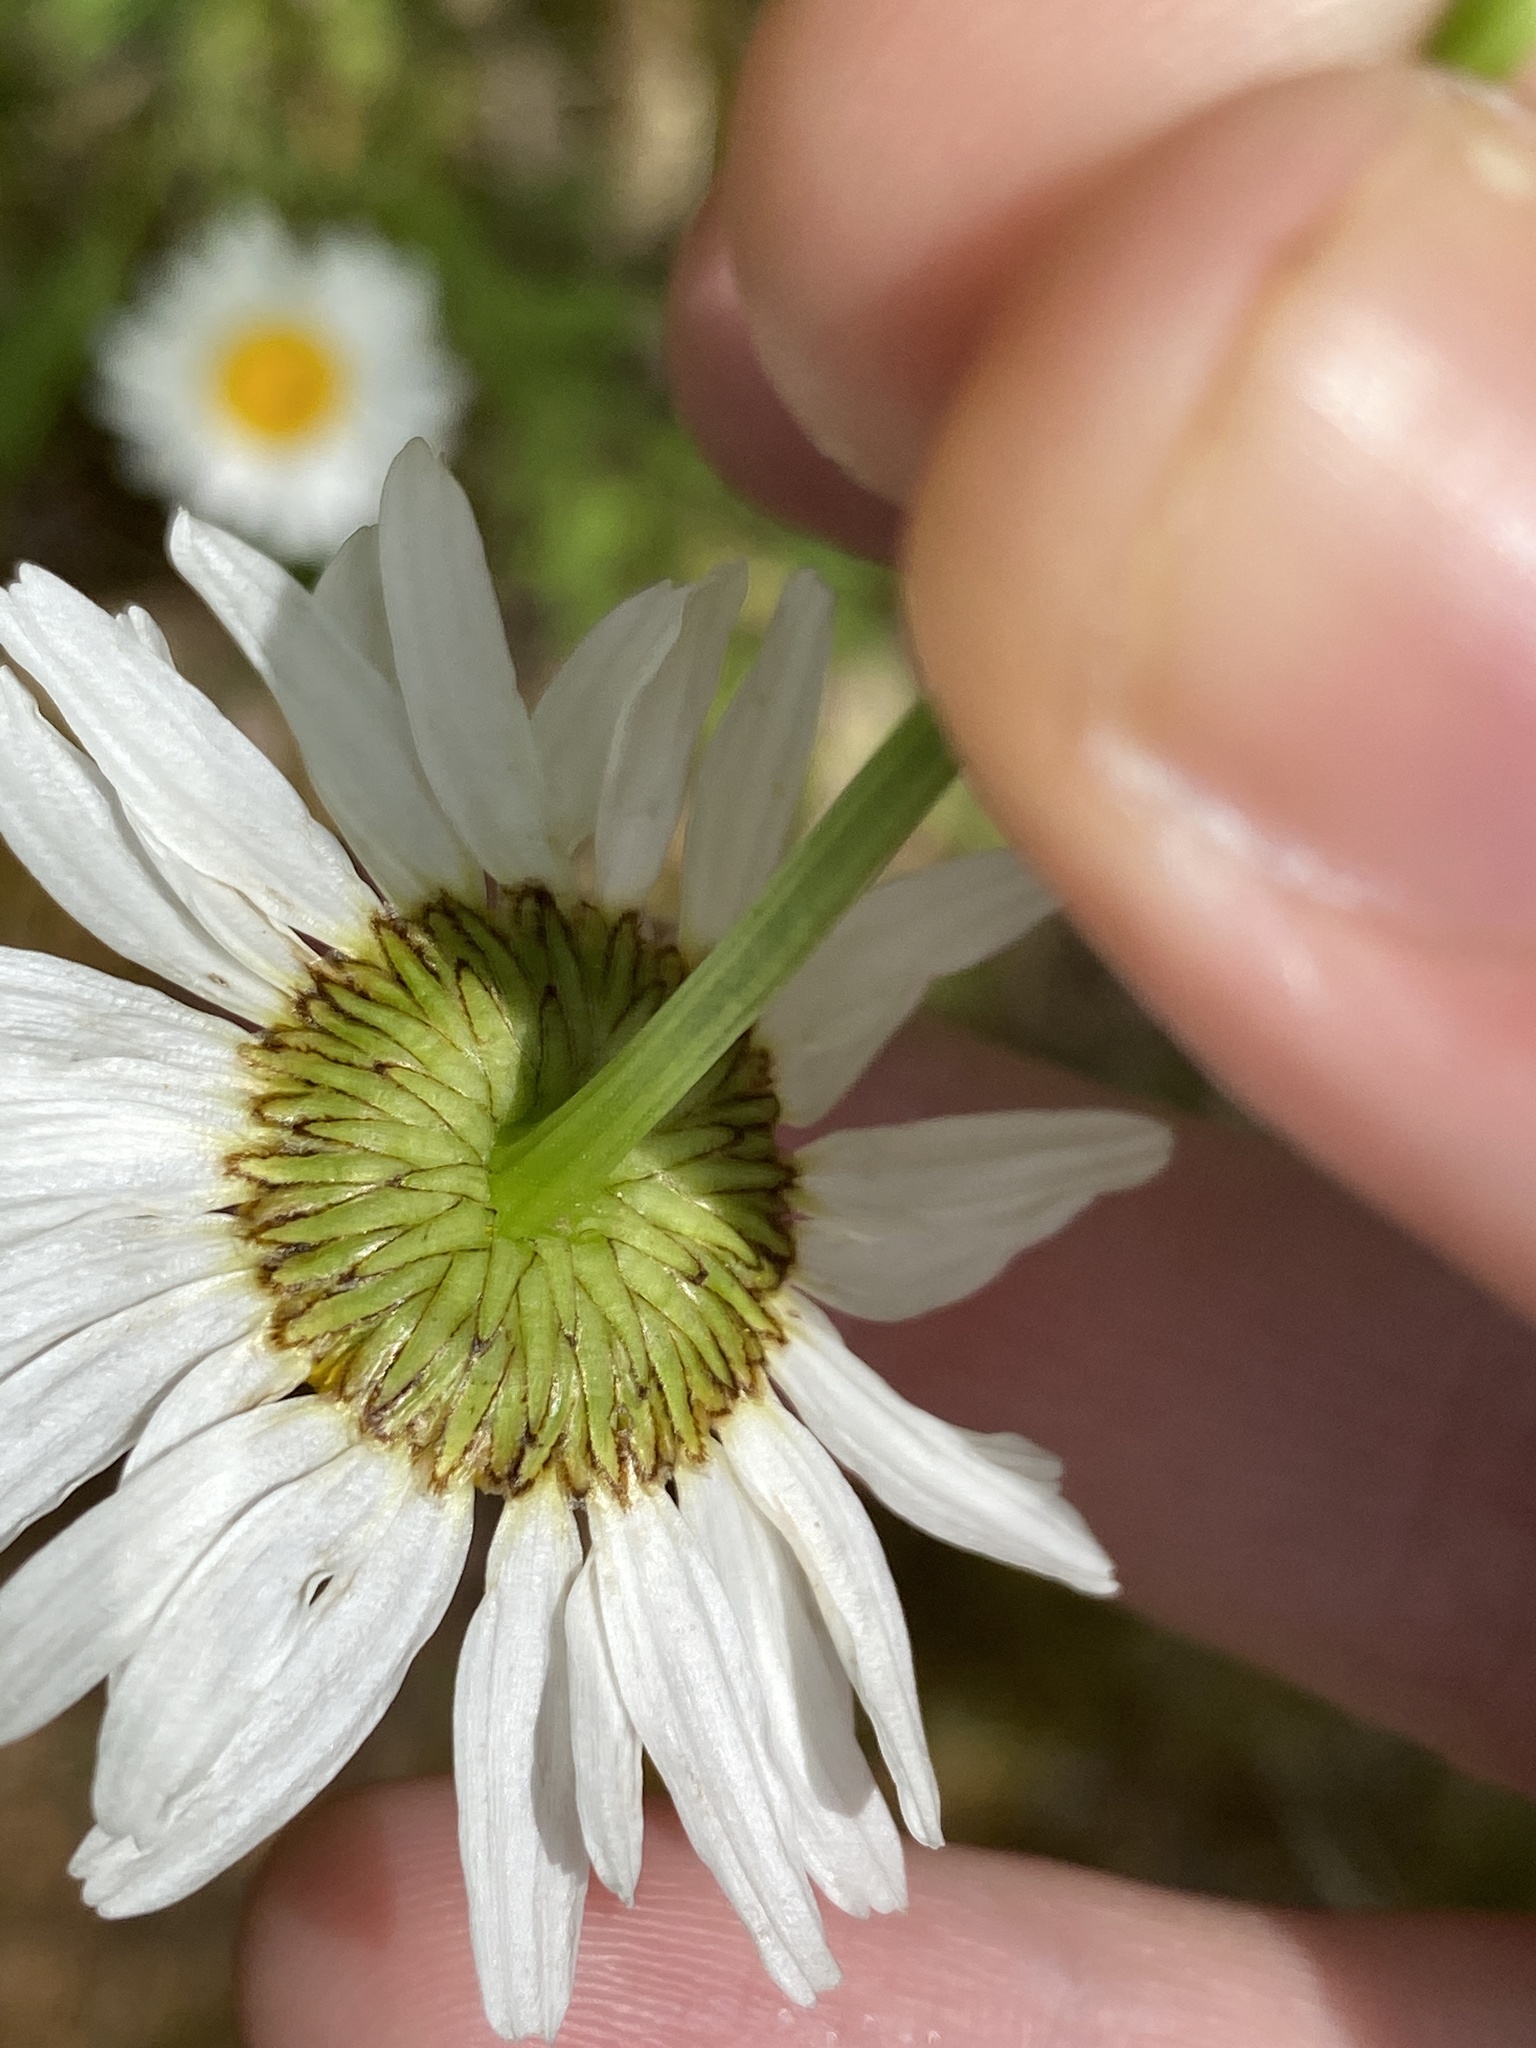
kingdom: Plantae
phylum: Tracheophyta
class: Magnoliopsida
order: Asterales
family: Asteraceae
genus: Leucanthemum
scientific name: Leucanthemum vulgare
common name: Oxeye daisy
